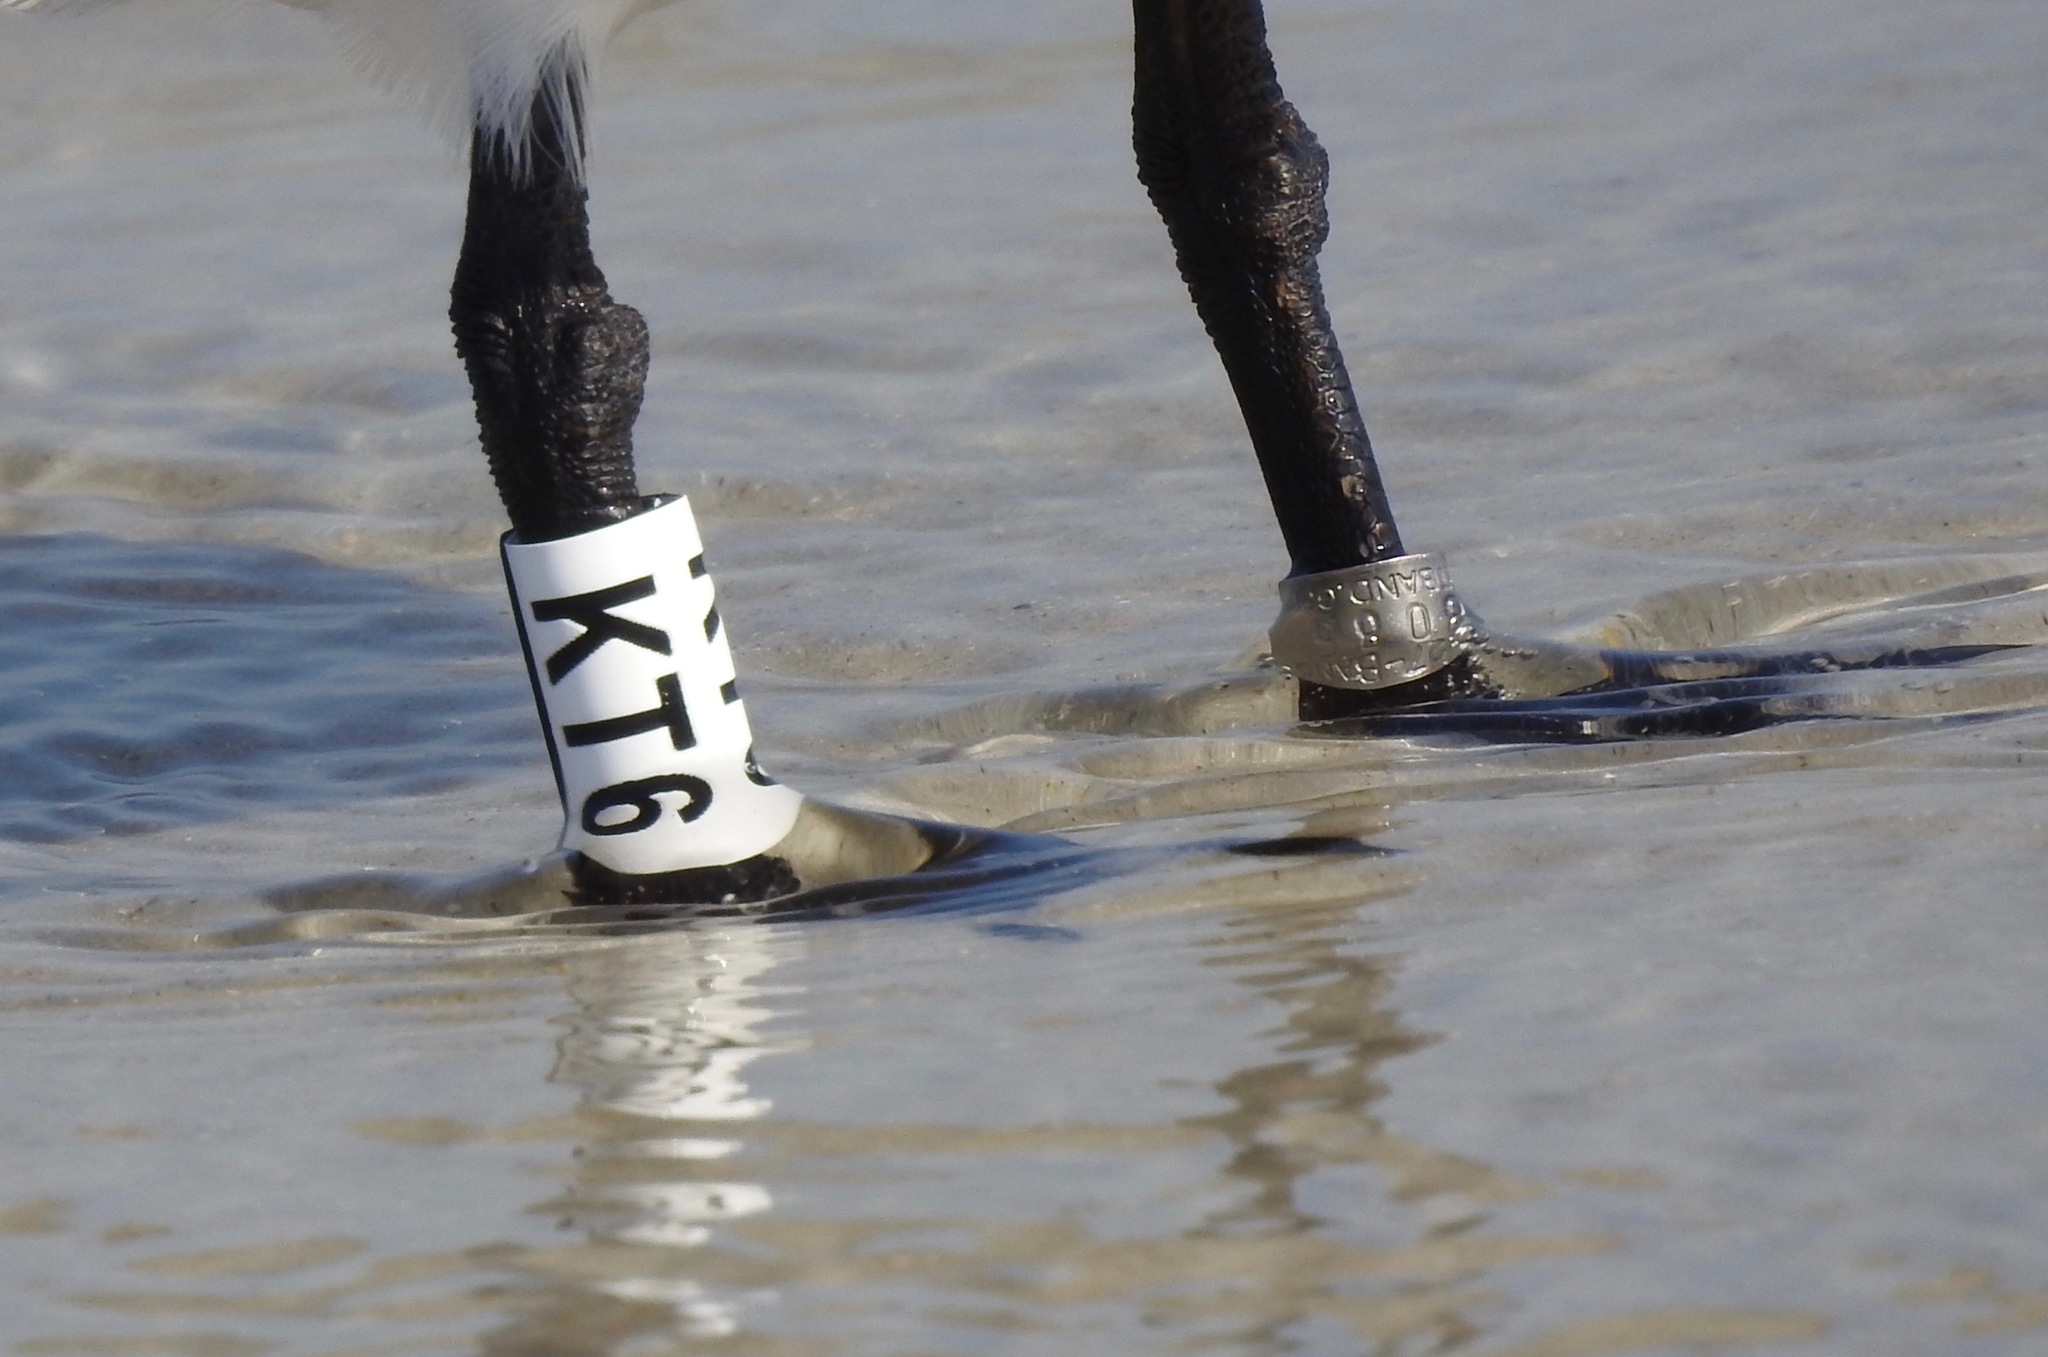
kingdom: Animalia
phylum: Chordata
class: Aves
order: Charadriiformes
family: Laridae
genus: Thalasseus
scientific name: Thalasseus maximus
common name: Royal tern
